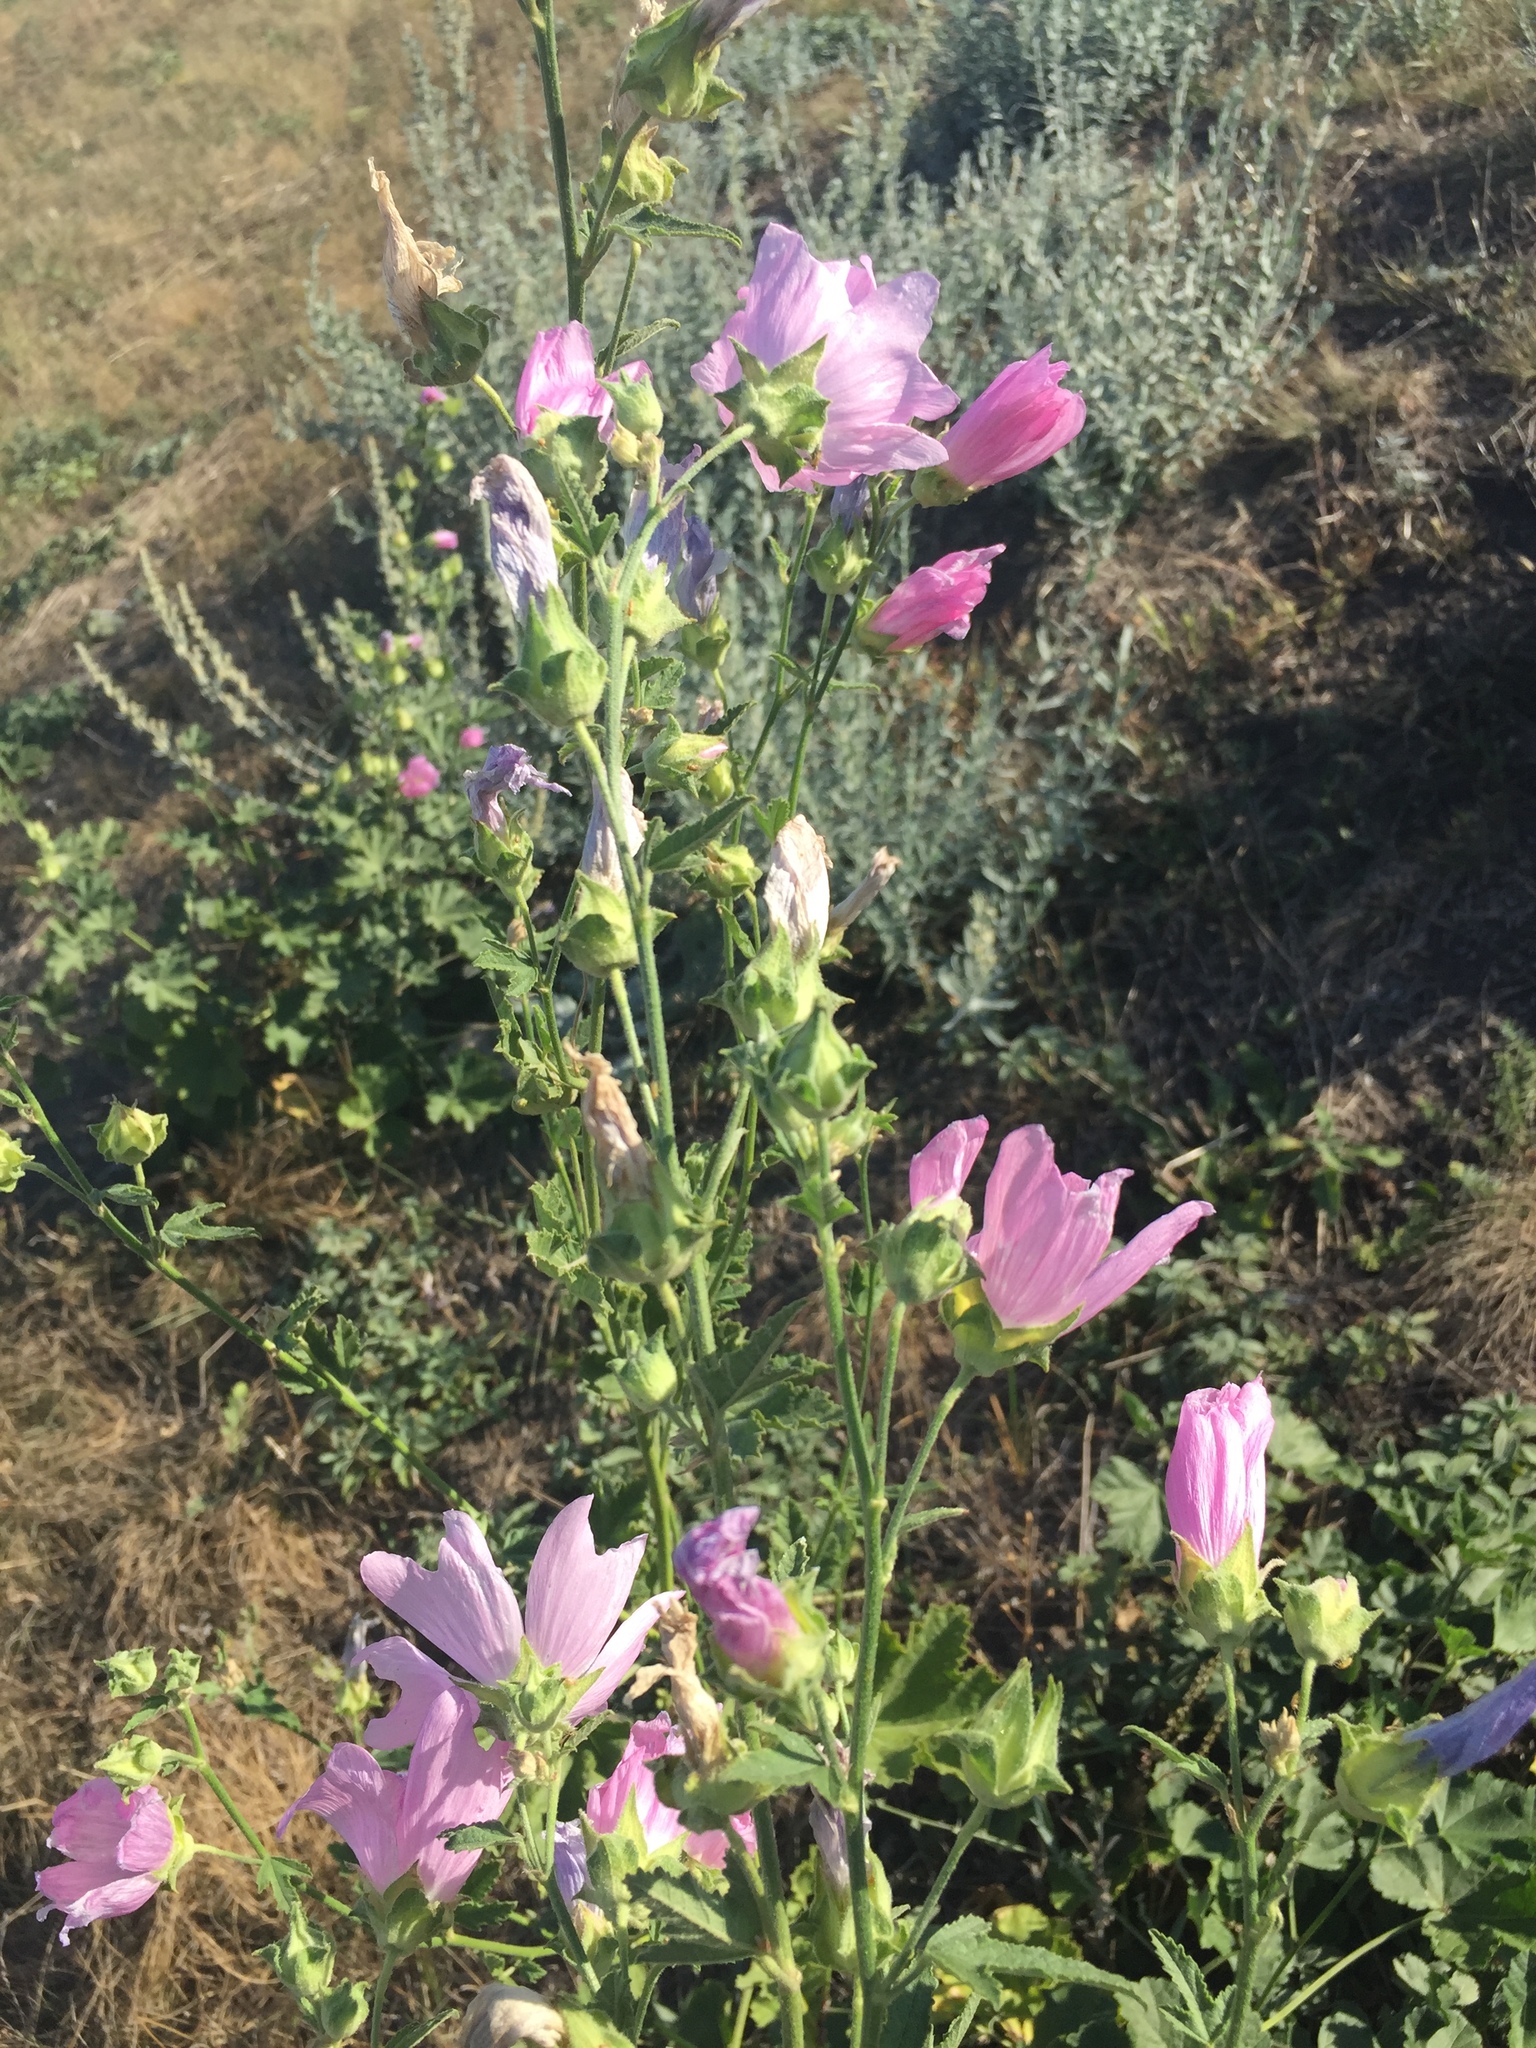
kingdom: Plantae
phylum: Tracheophyta
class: Magnoliopsida
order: Malvales
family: Malvaceae
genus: Malva
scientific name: Malva thuringiaca
